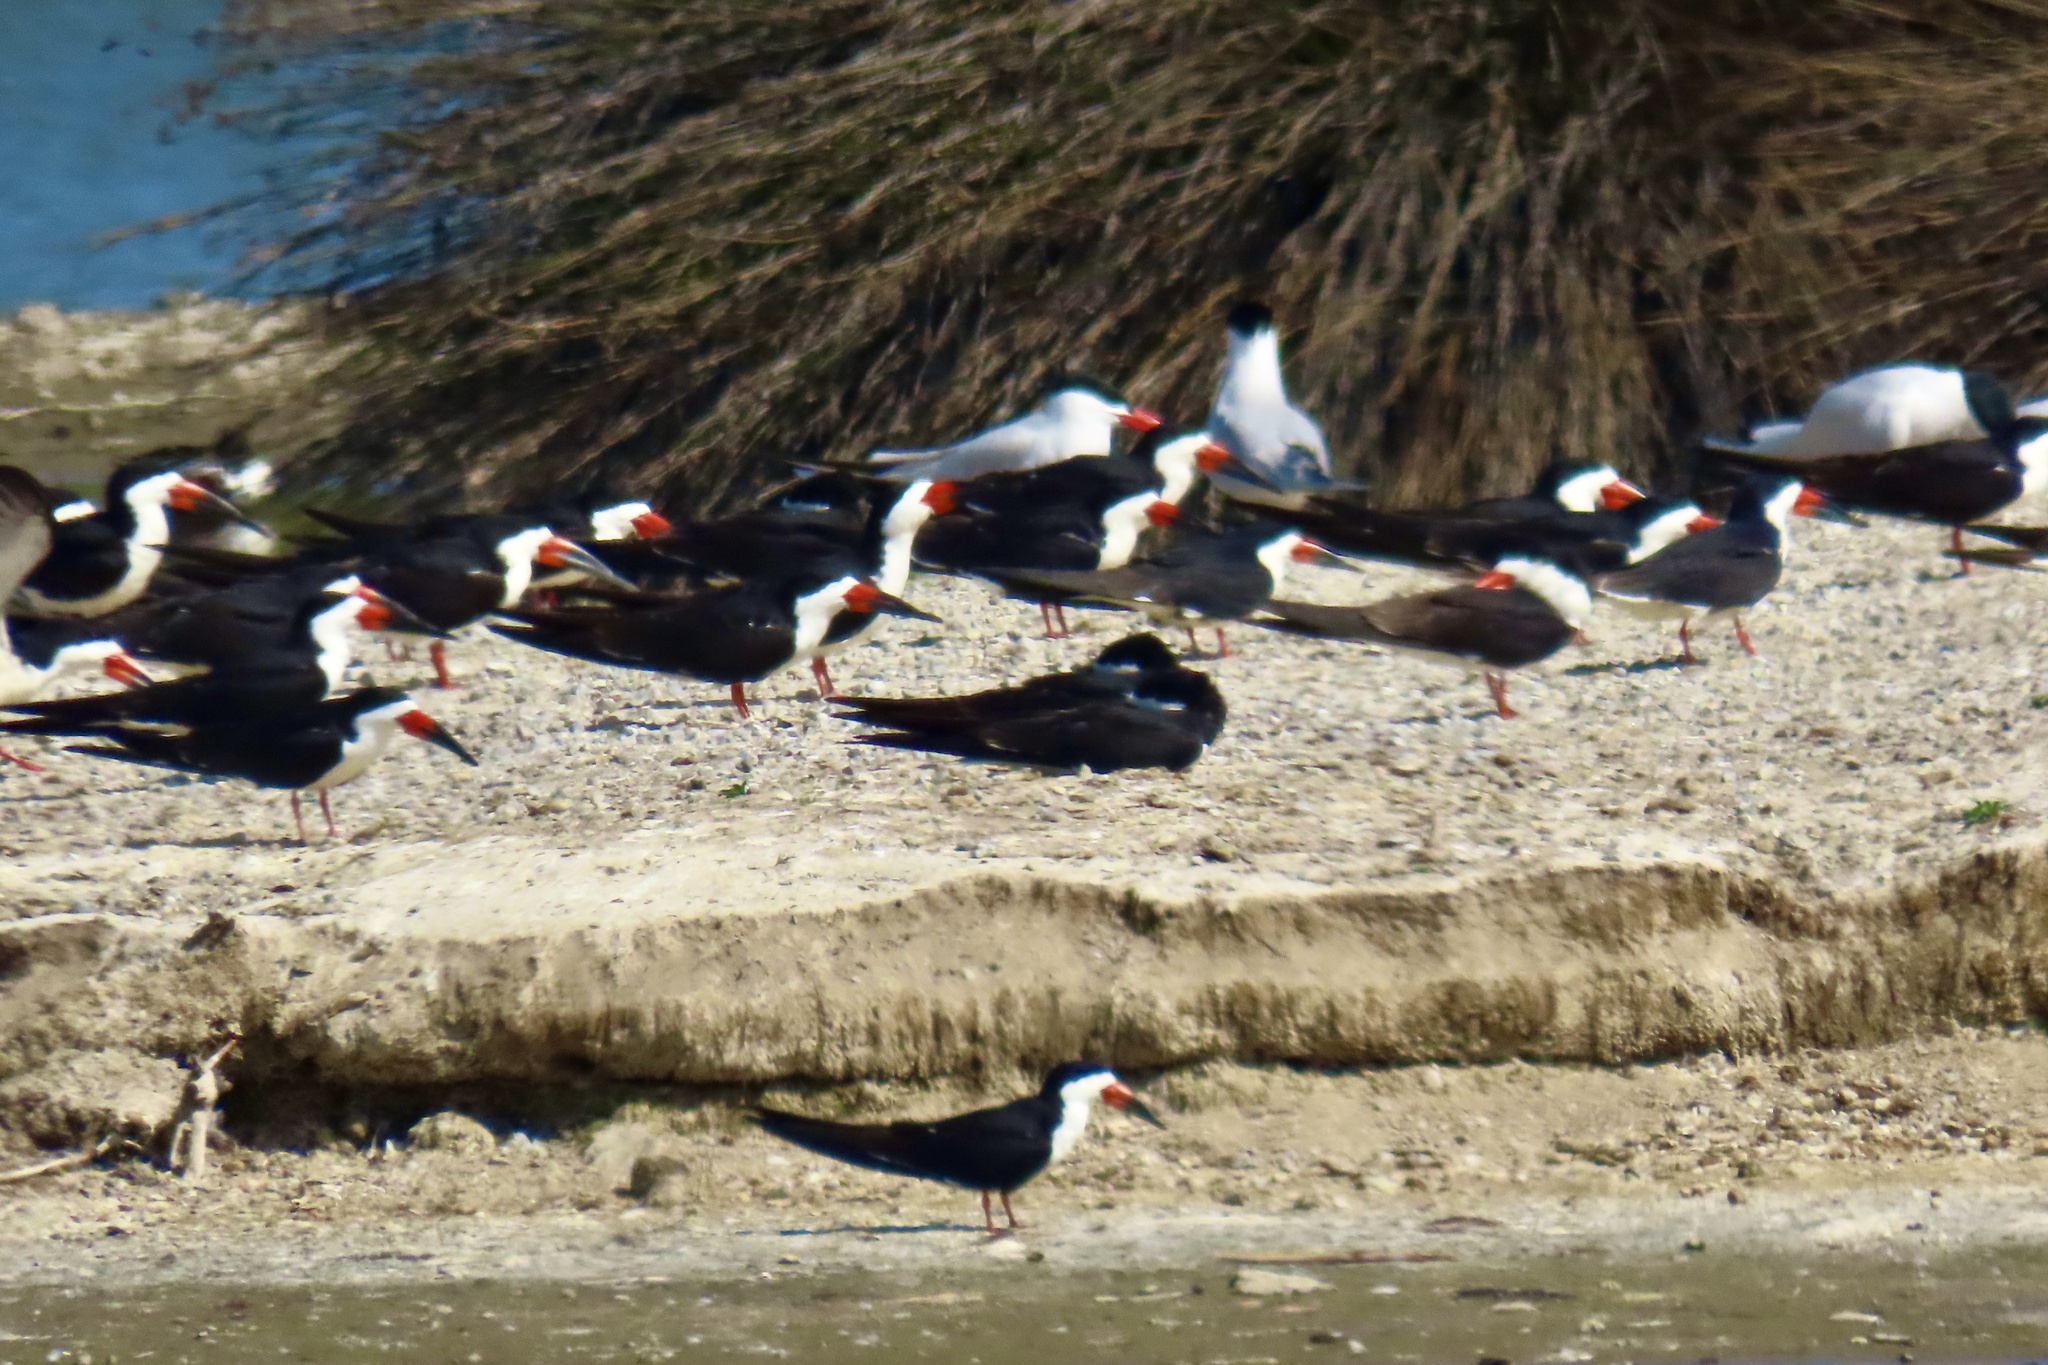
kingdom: Animalia
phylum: Chordata
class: Aves
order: Charadriiformes
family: Laridae
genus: Rynchops
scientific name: Rynchops niger
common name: Black skimmer
